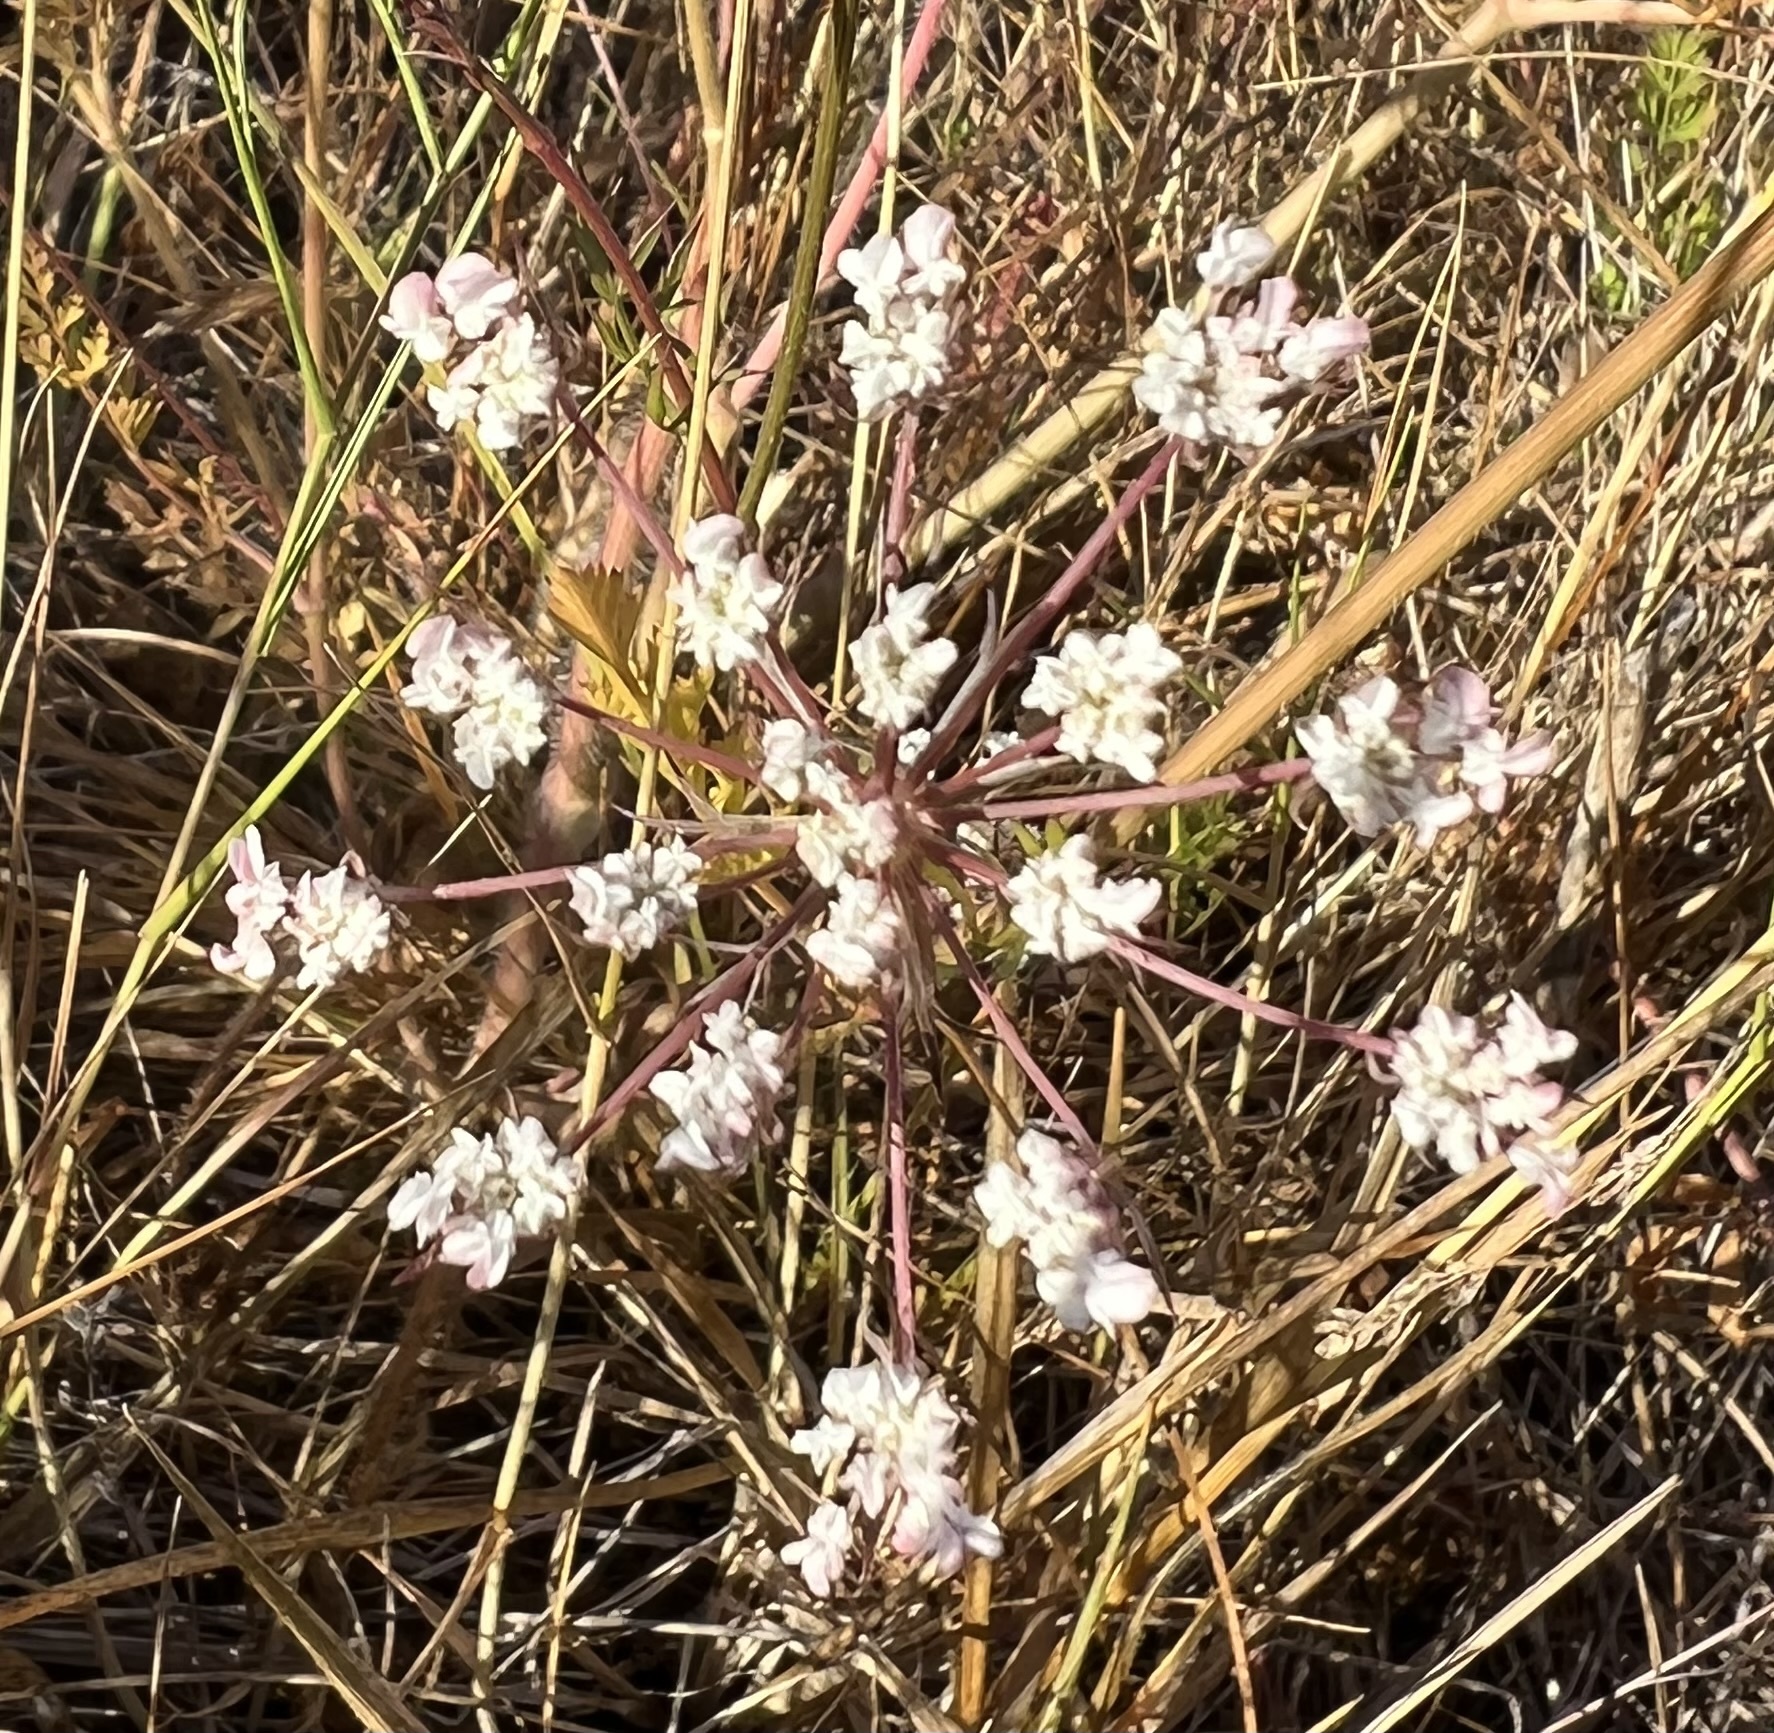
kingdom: Plantae
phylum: Tracheophyta
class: Magnoliopsida
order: Apiales
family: Apiaceae
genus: Daucus
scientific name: Daucus carota
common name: Wild carrot
